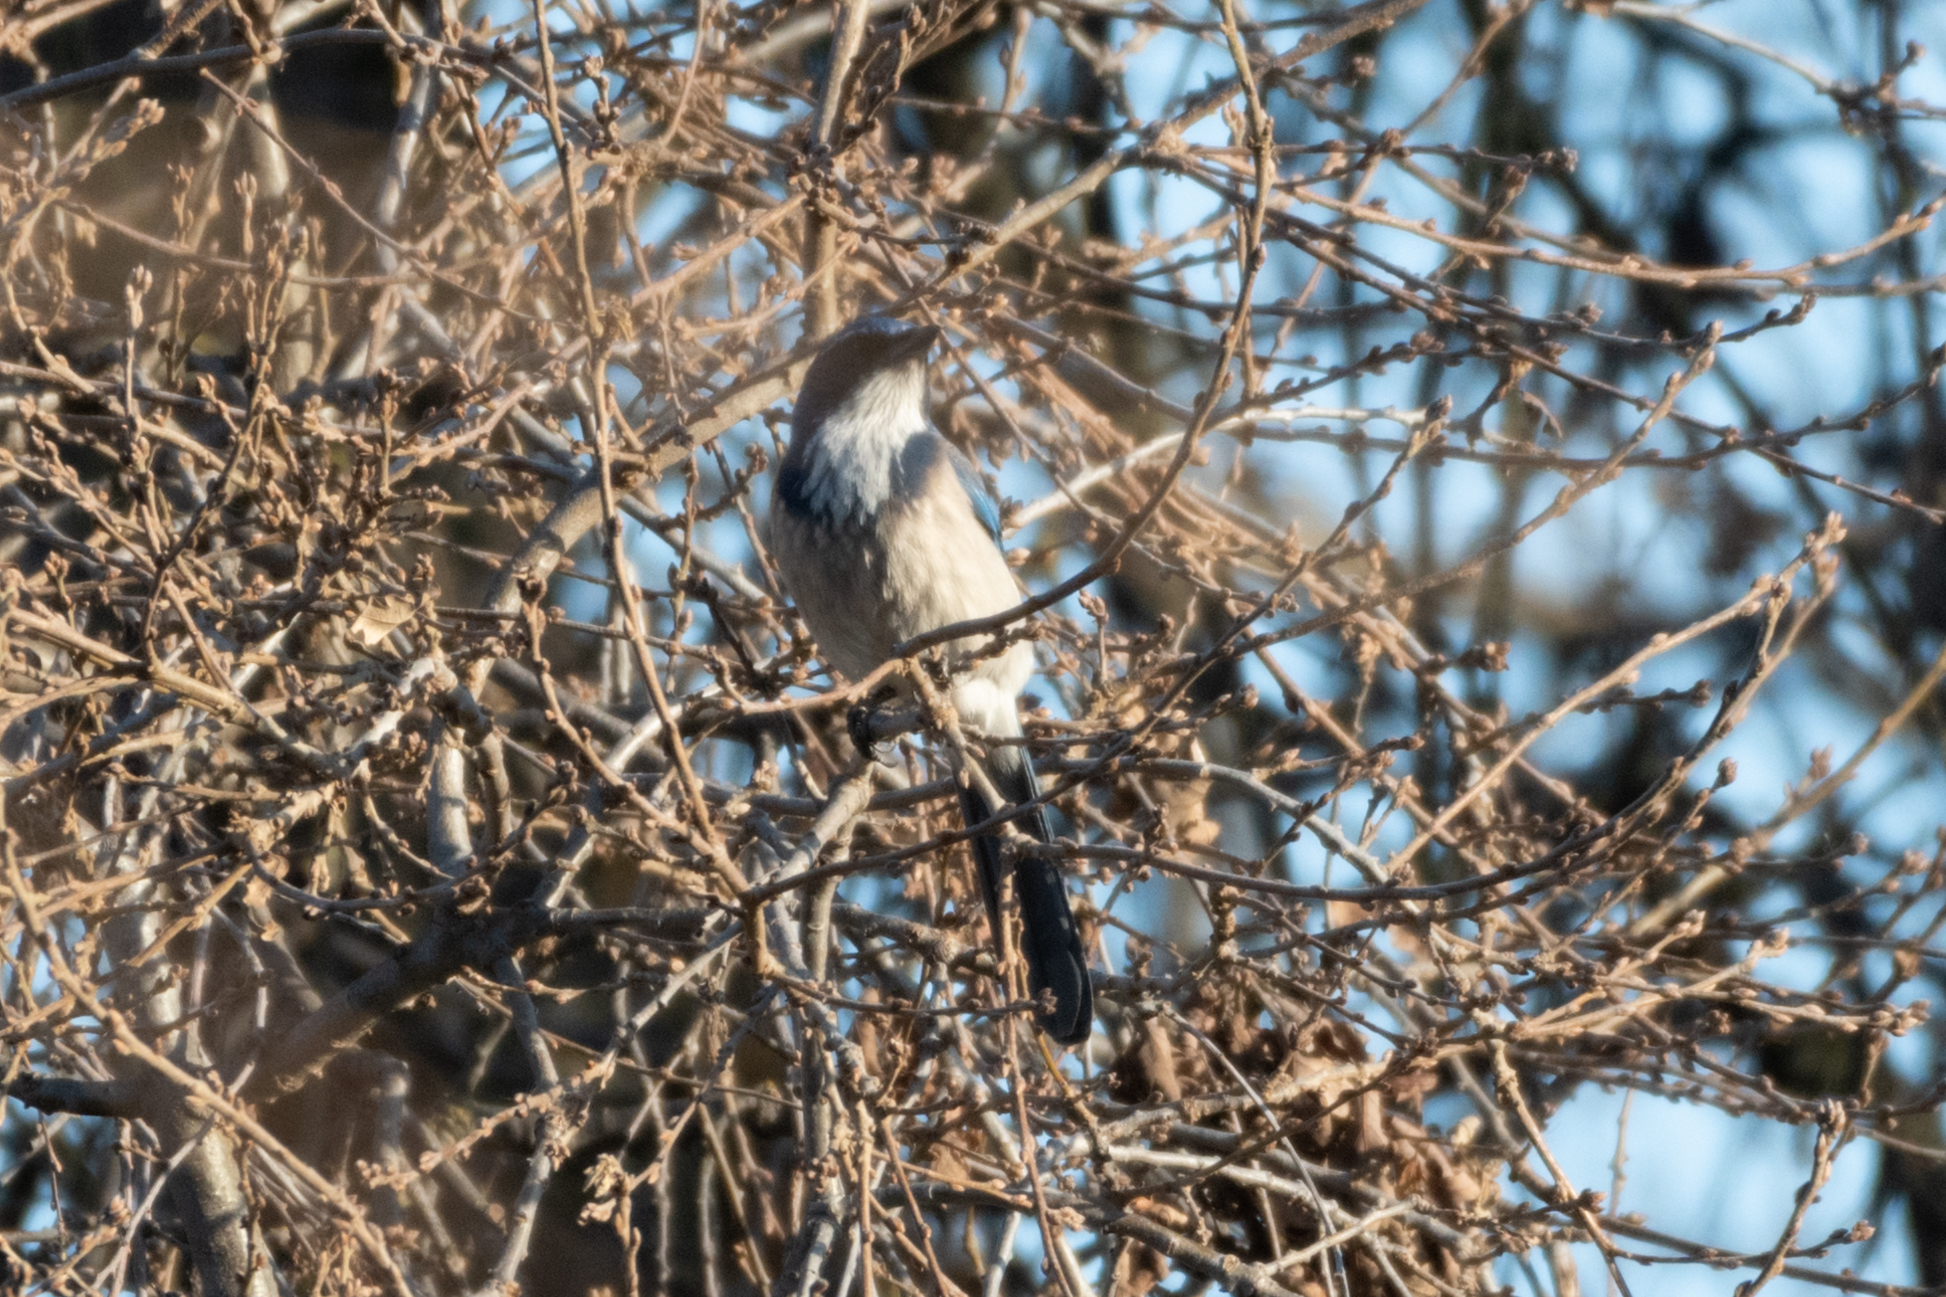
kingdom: Animalia
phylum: Chordata
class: Aves
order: Passeriformes
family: Corvidae
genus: Aphelocoma
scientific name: Aphelocoma californica
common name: California scrub-jay
